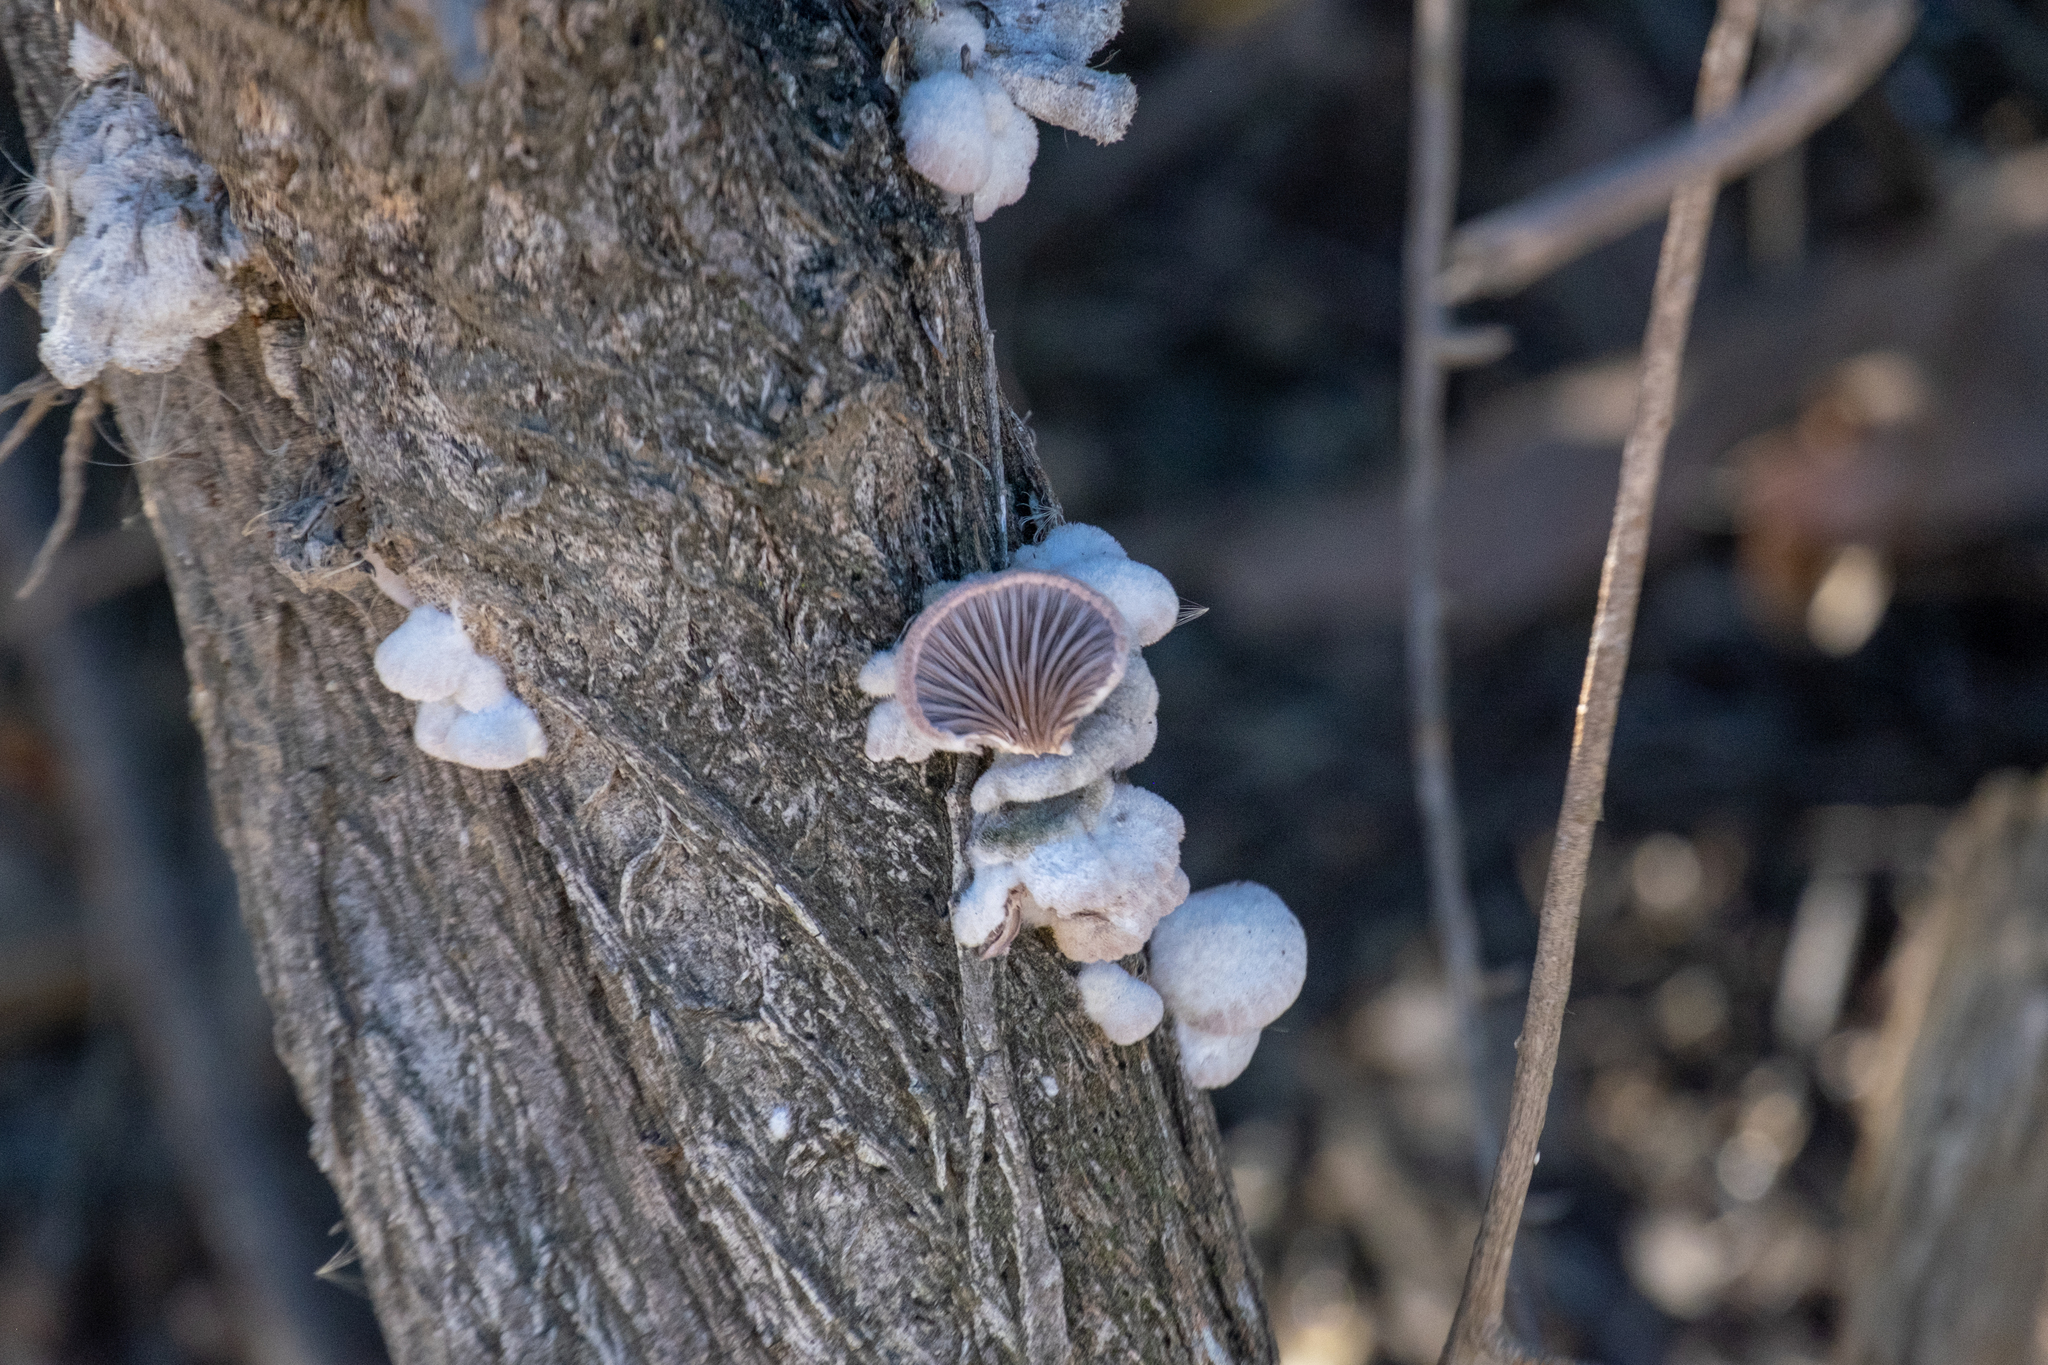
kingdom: Fungi
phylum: Basidiomycota
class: Agaricomycetes
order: Agaricales
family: Schizophyllaceae
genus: Schizophyllum
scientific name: Schizophyllum commune
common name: Common porecrust
